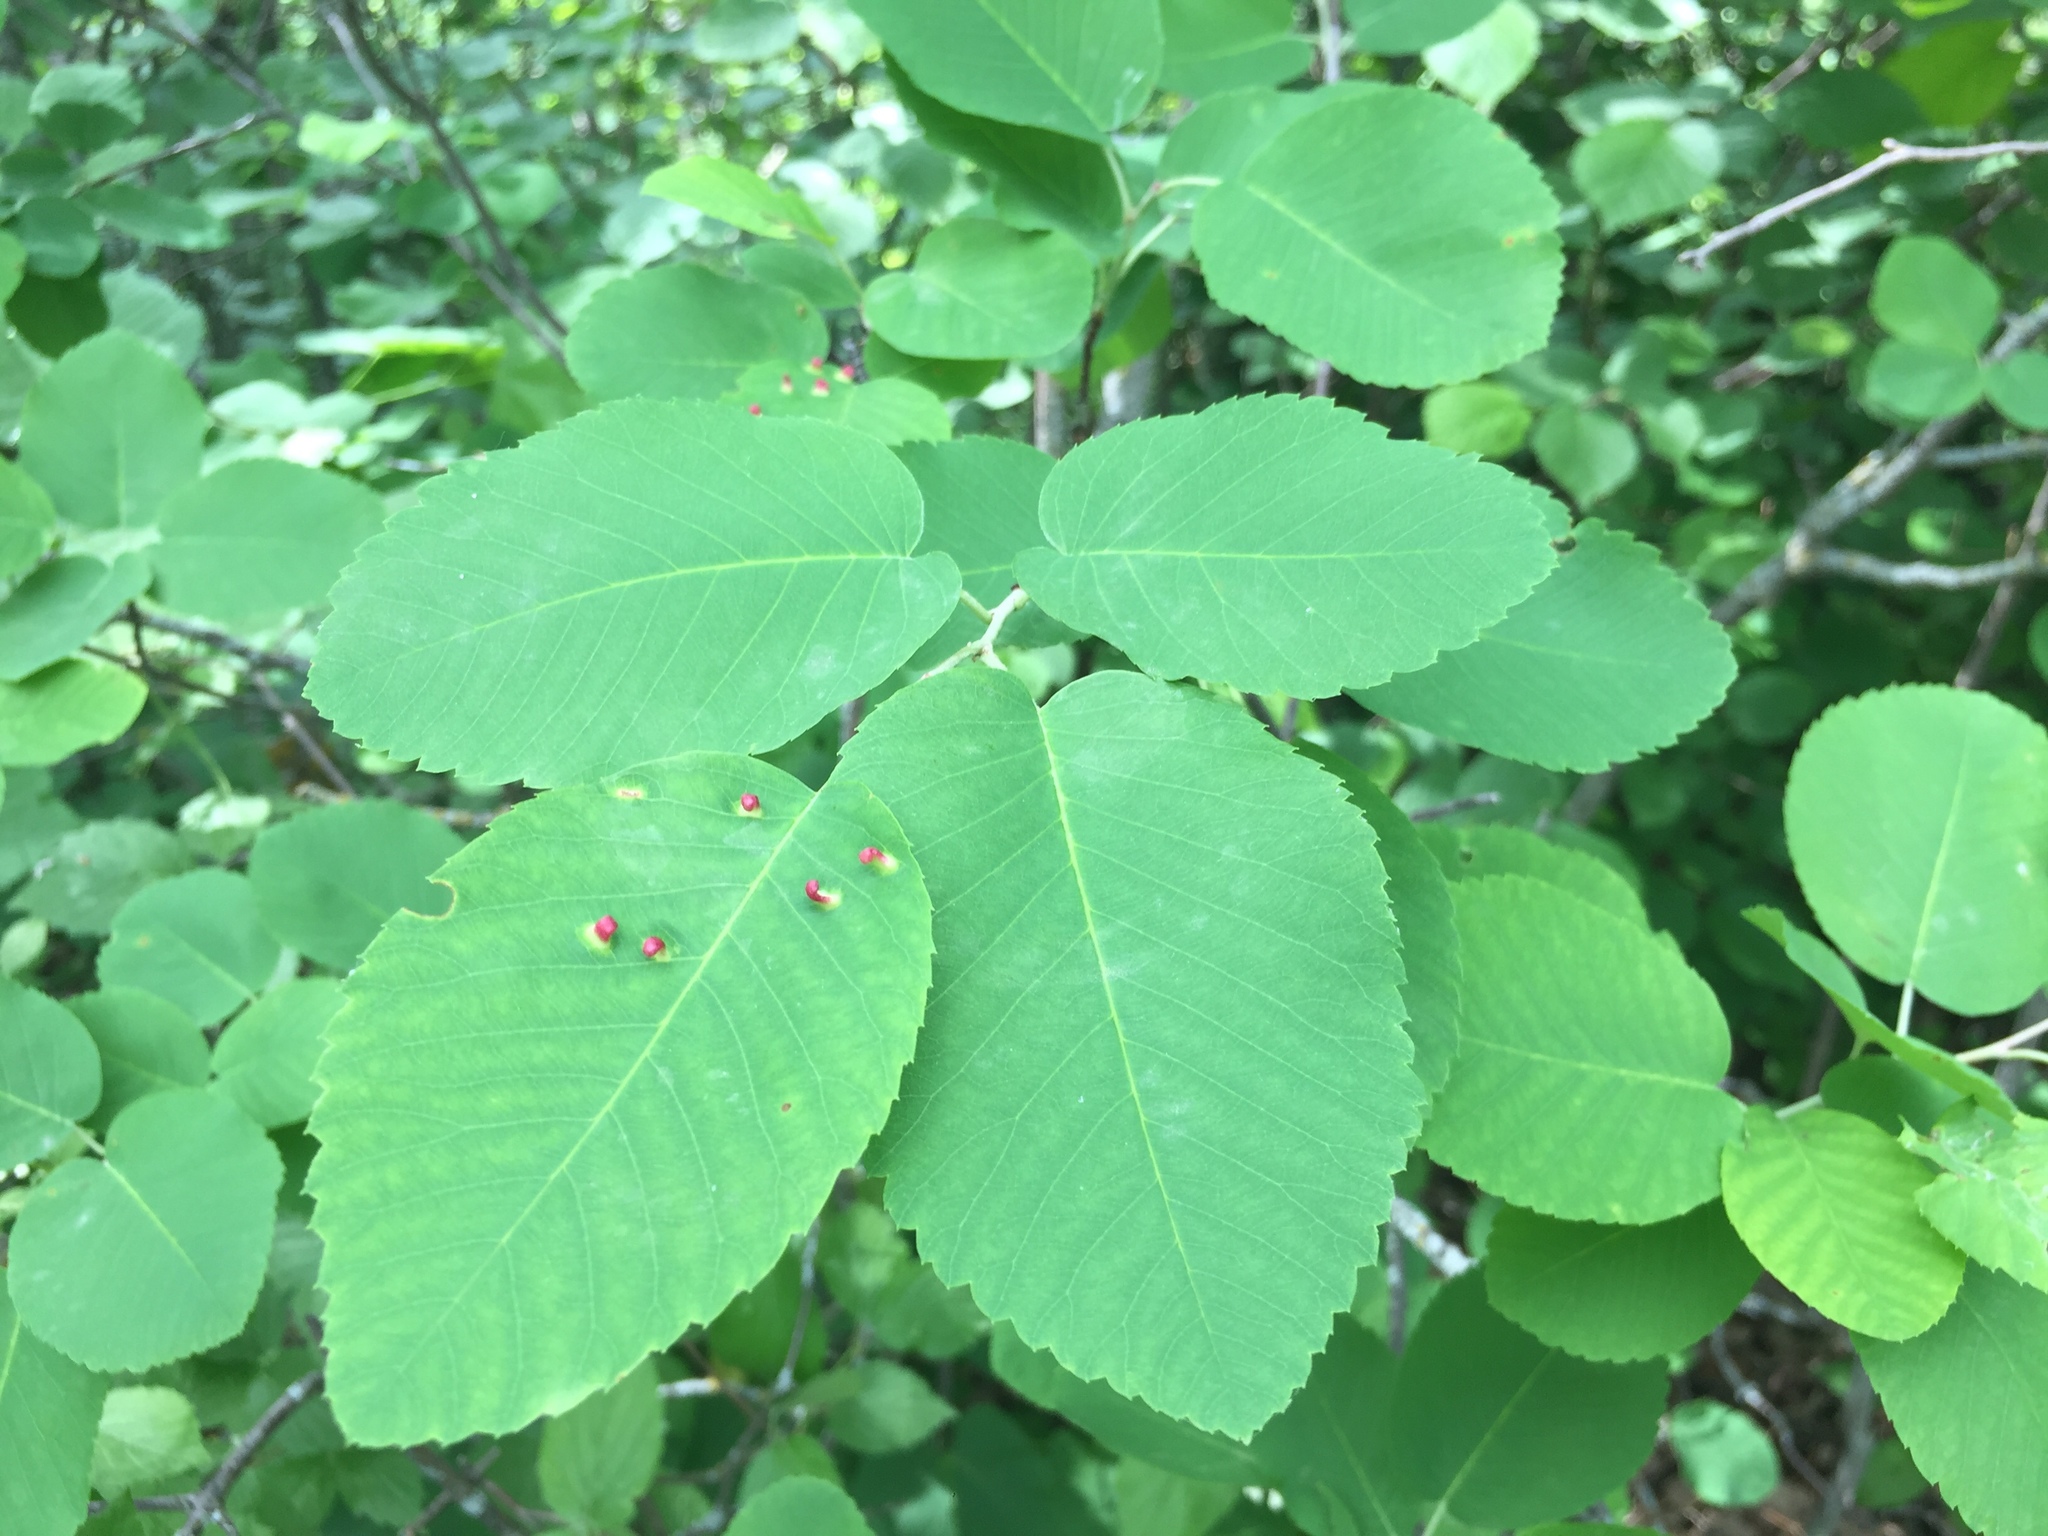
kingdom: Plantae
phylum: Tracheophyta
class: Magnoliopsida
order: Rosales
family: Rosaceae
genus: Amelanchier
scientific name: Amelanchier alnifolia
